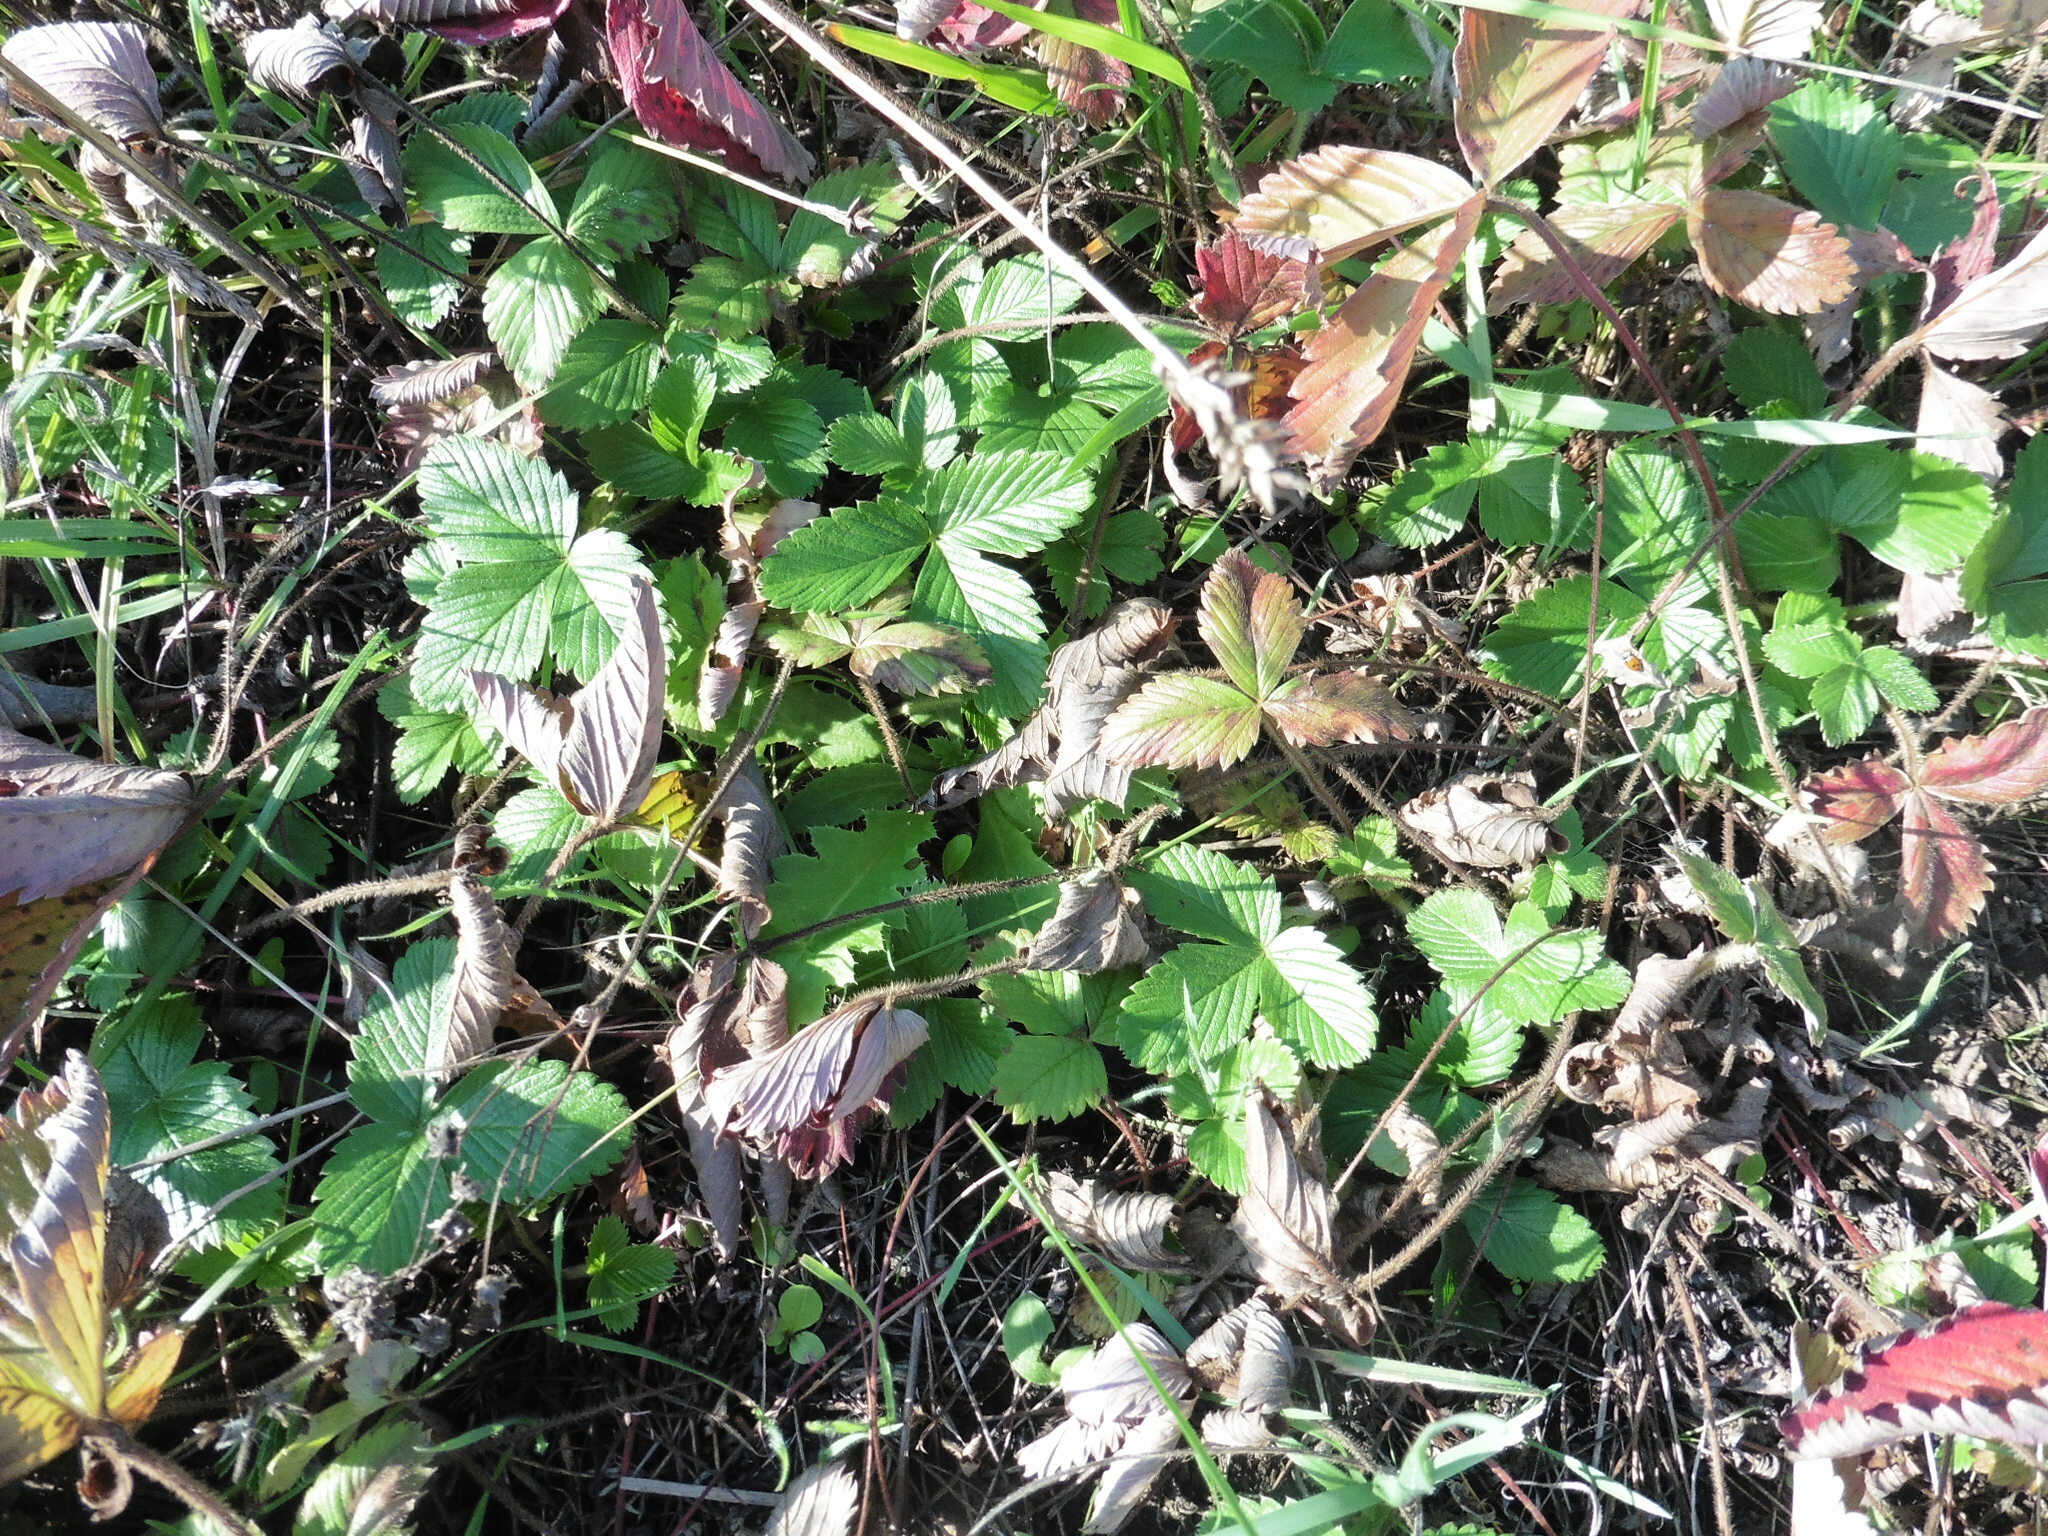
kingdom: Plantae
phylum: Tracheophyta
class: Magnoliopsida
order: Rosales
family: Rosaceae
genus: Fragaria
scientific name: Fragaria viridis
